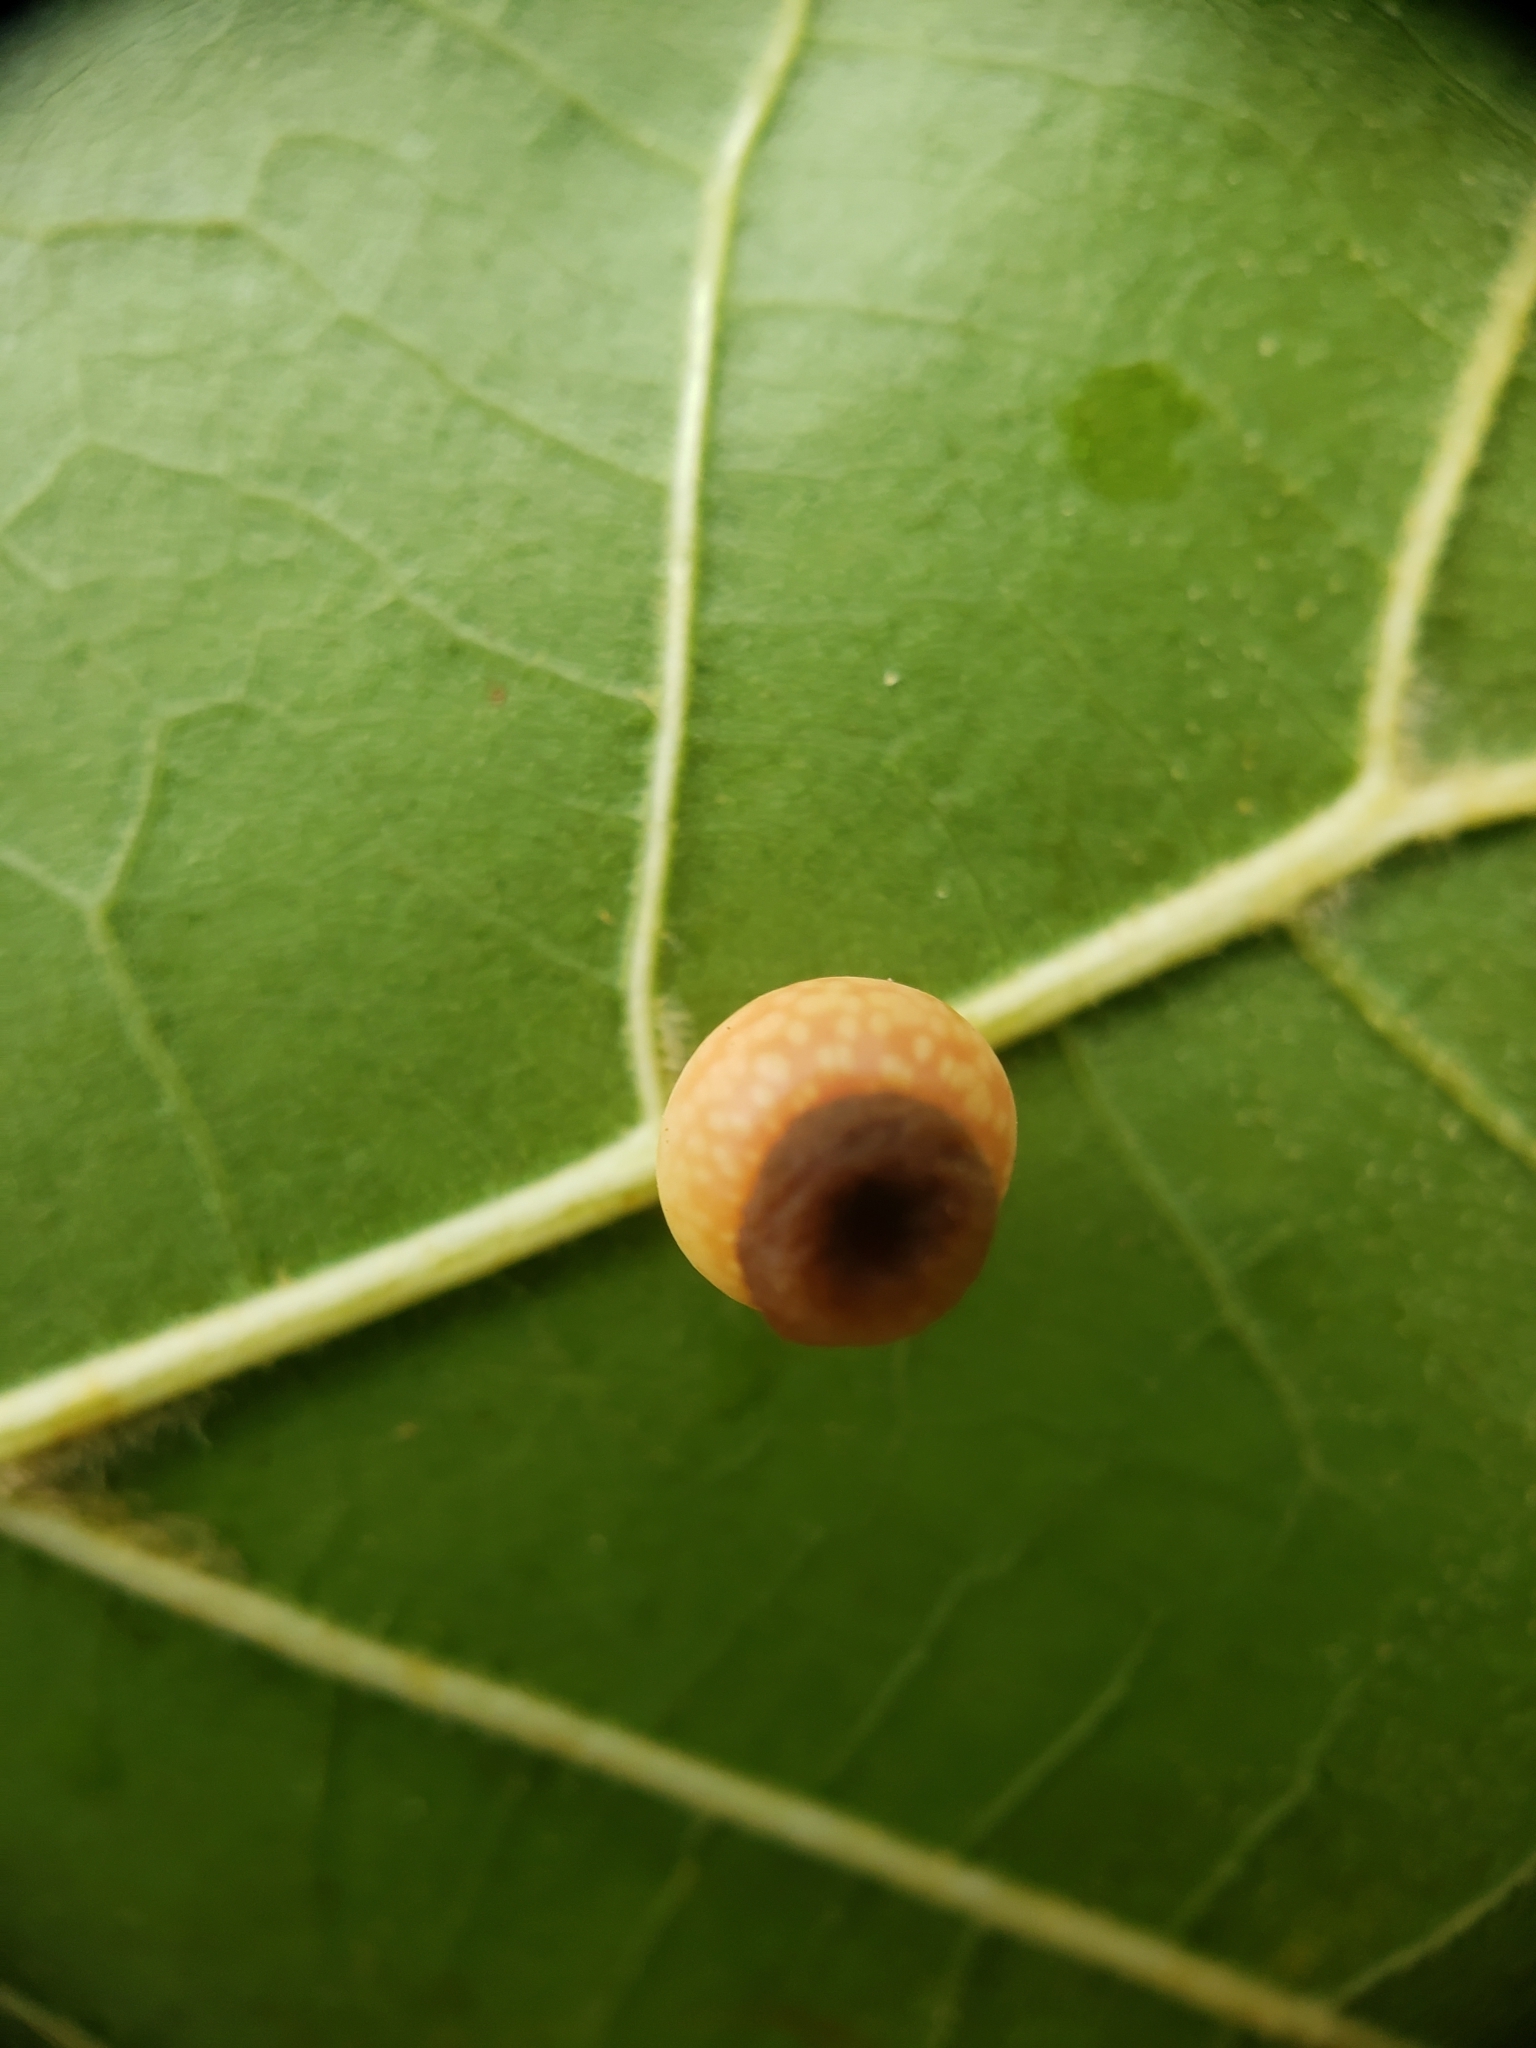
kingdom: Animalia
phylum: Arthropoda
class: Insecta
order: Hymenoptera
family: Cynipidae
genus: Kokkocynips
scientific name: Kokkocynips rileyi
